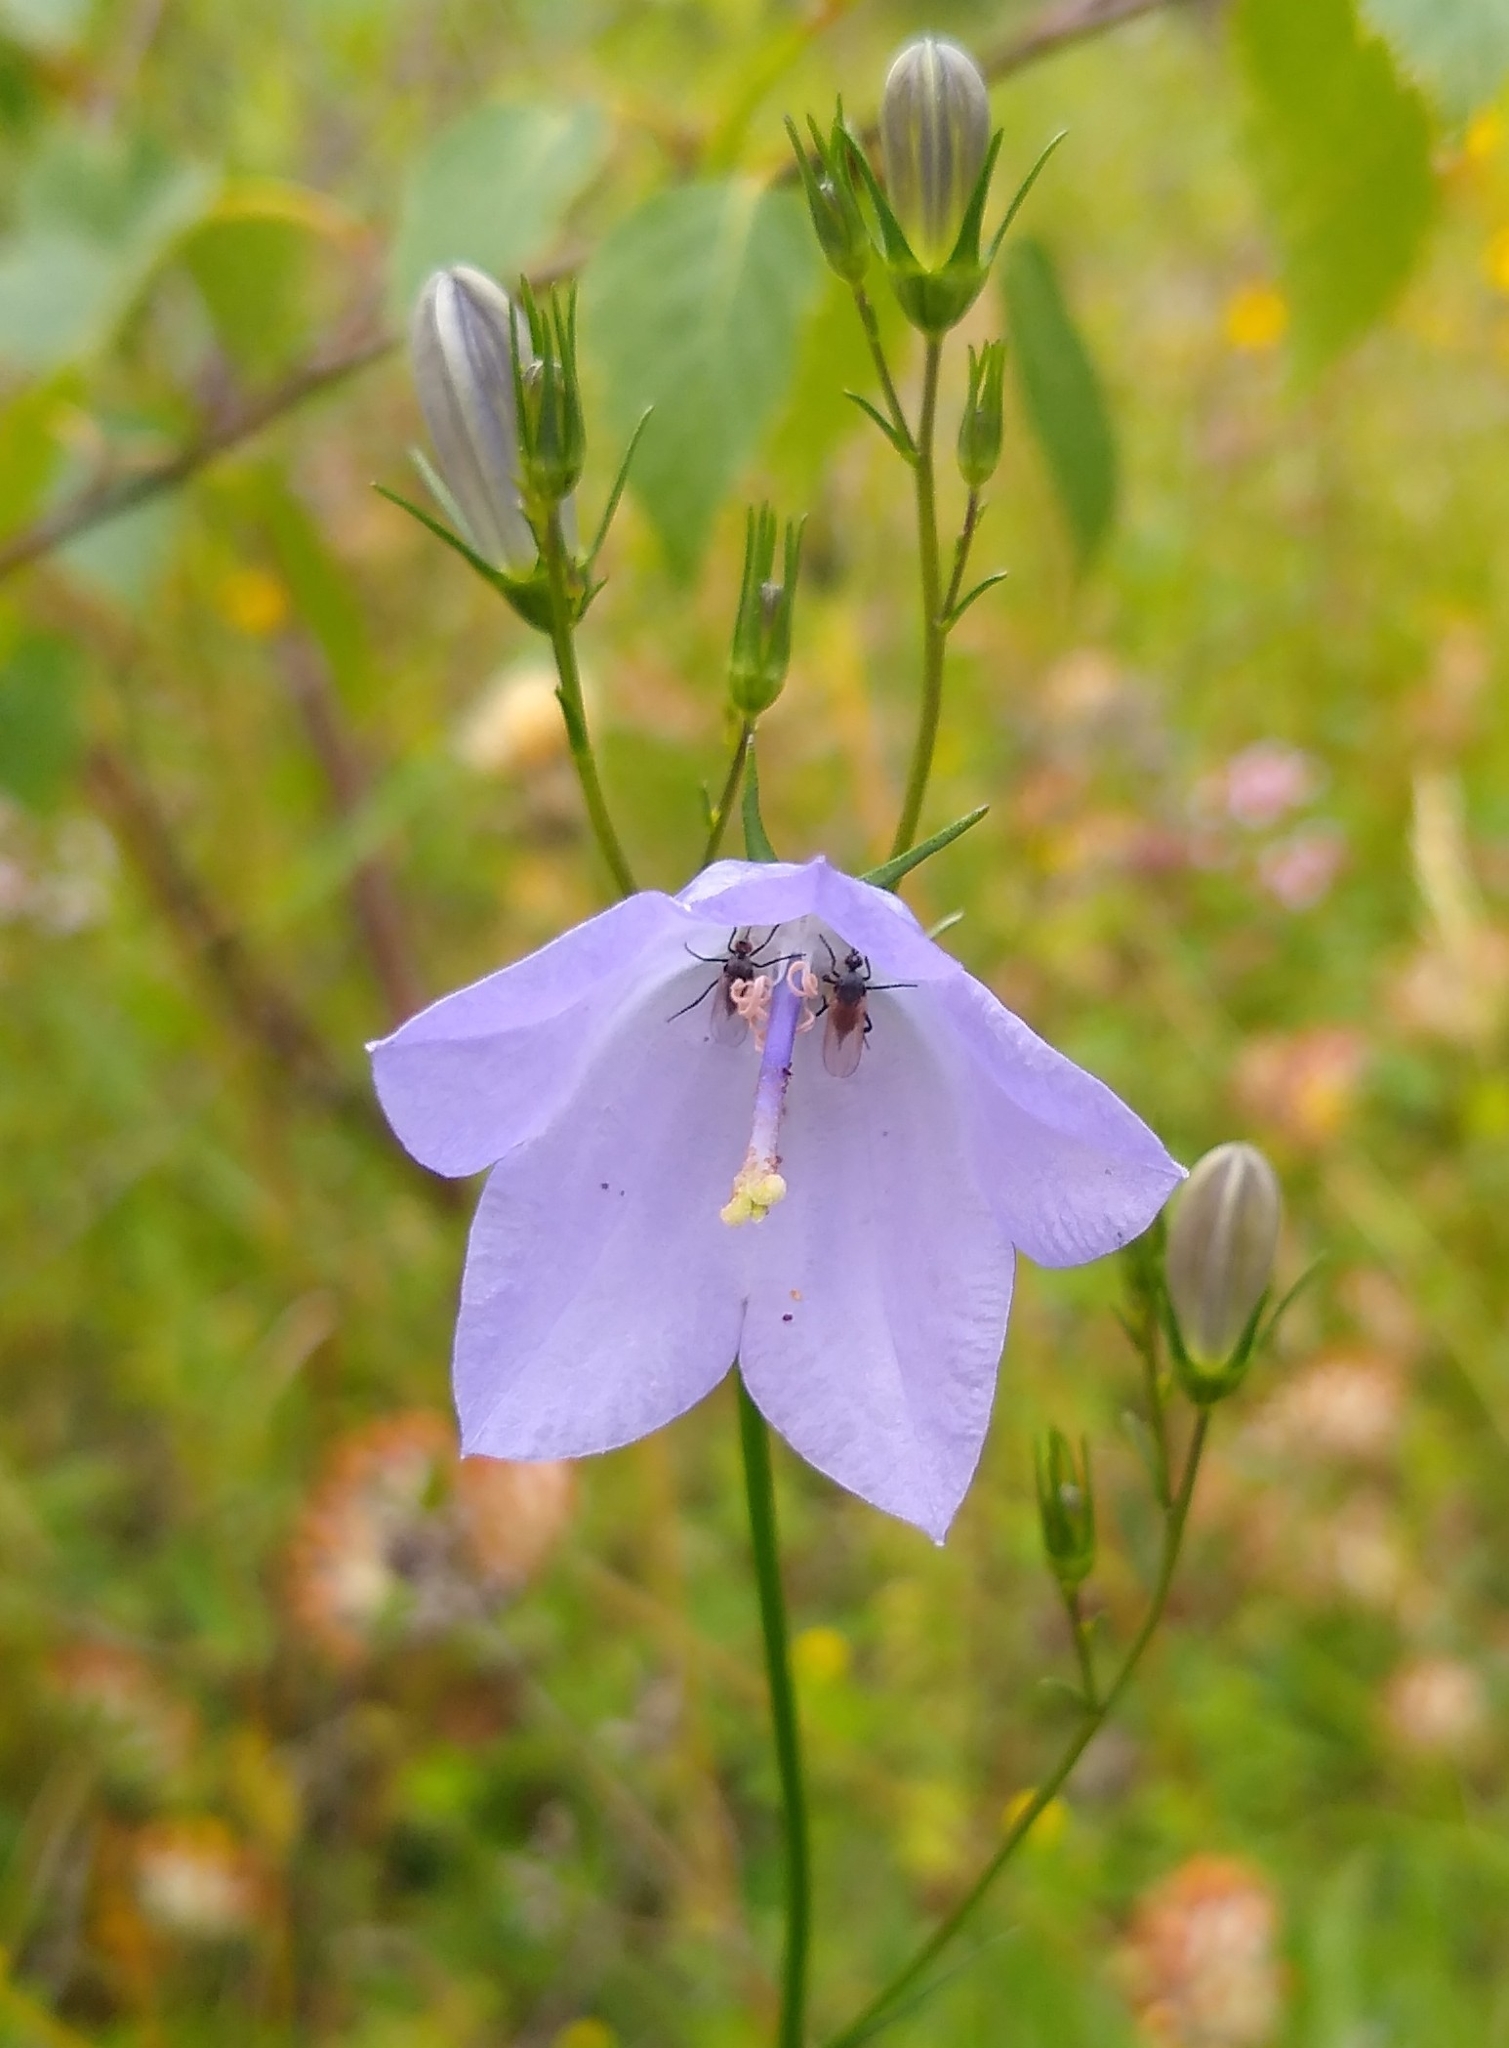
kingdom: Plantae
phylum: Tracheophyta
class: Magnoliopsida
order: Asterales
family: Campanulaceae
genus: Campanula
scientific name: Campanula rotundifolia
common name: Harebell
